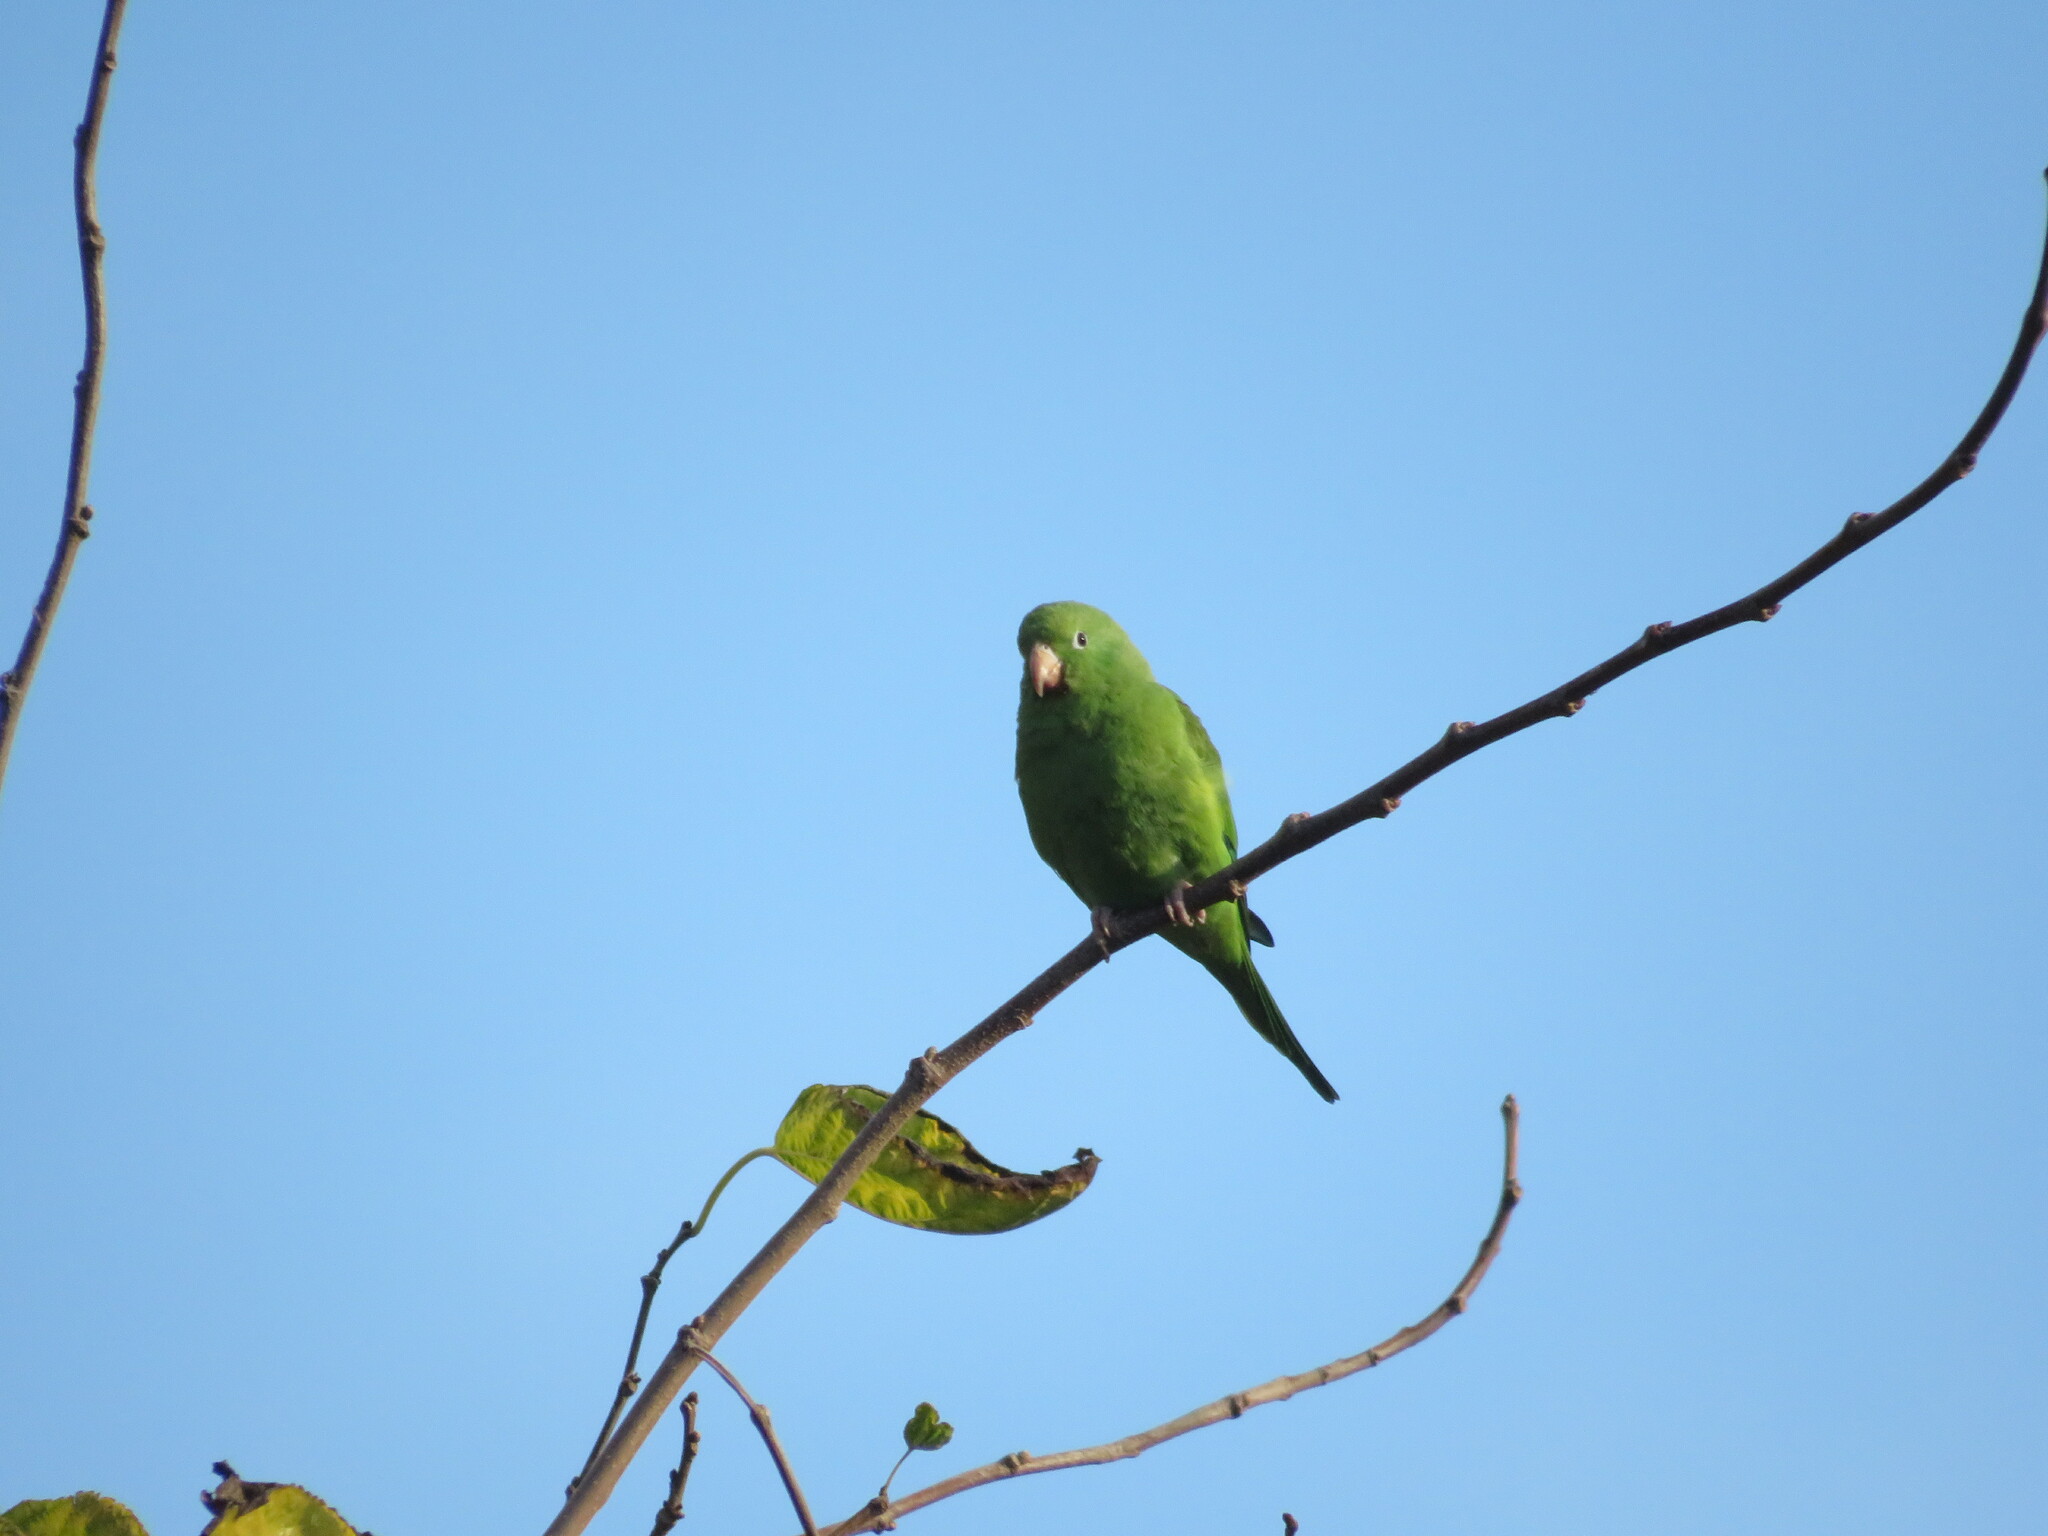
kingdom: Animalia
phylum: Chordata
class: Aves
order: Psittaciformes
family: Psittacidae
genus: Brotogeris
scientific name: Brotogeris chiriri
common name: Yellow-chevroned parakeet
